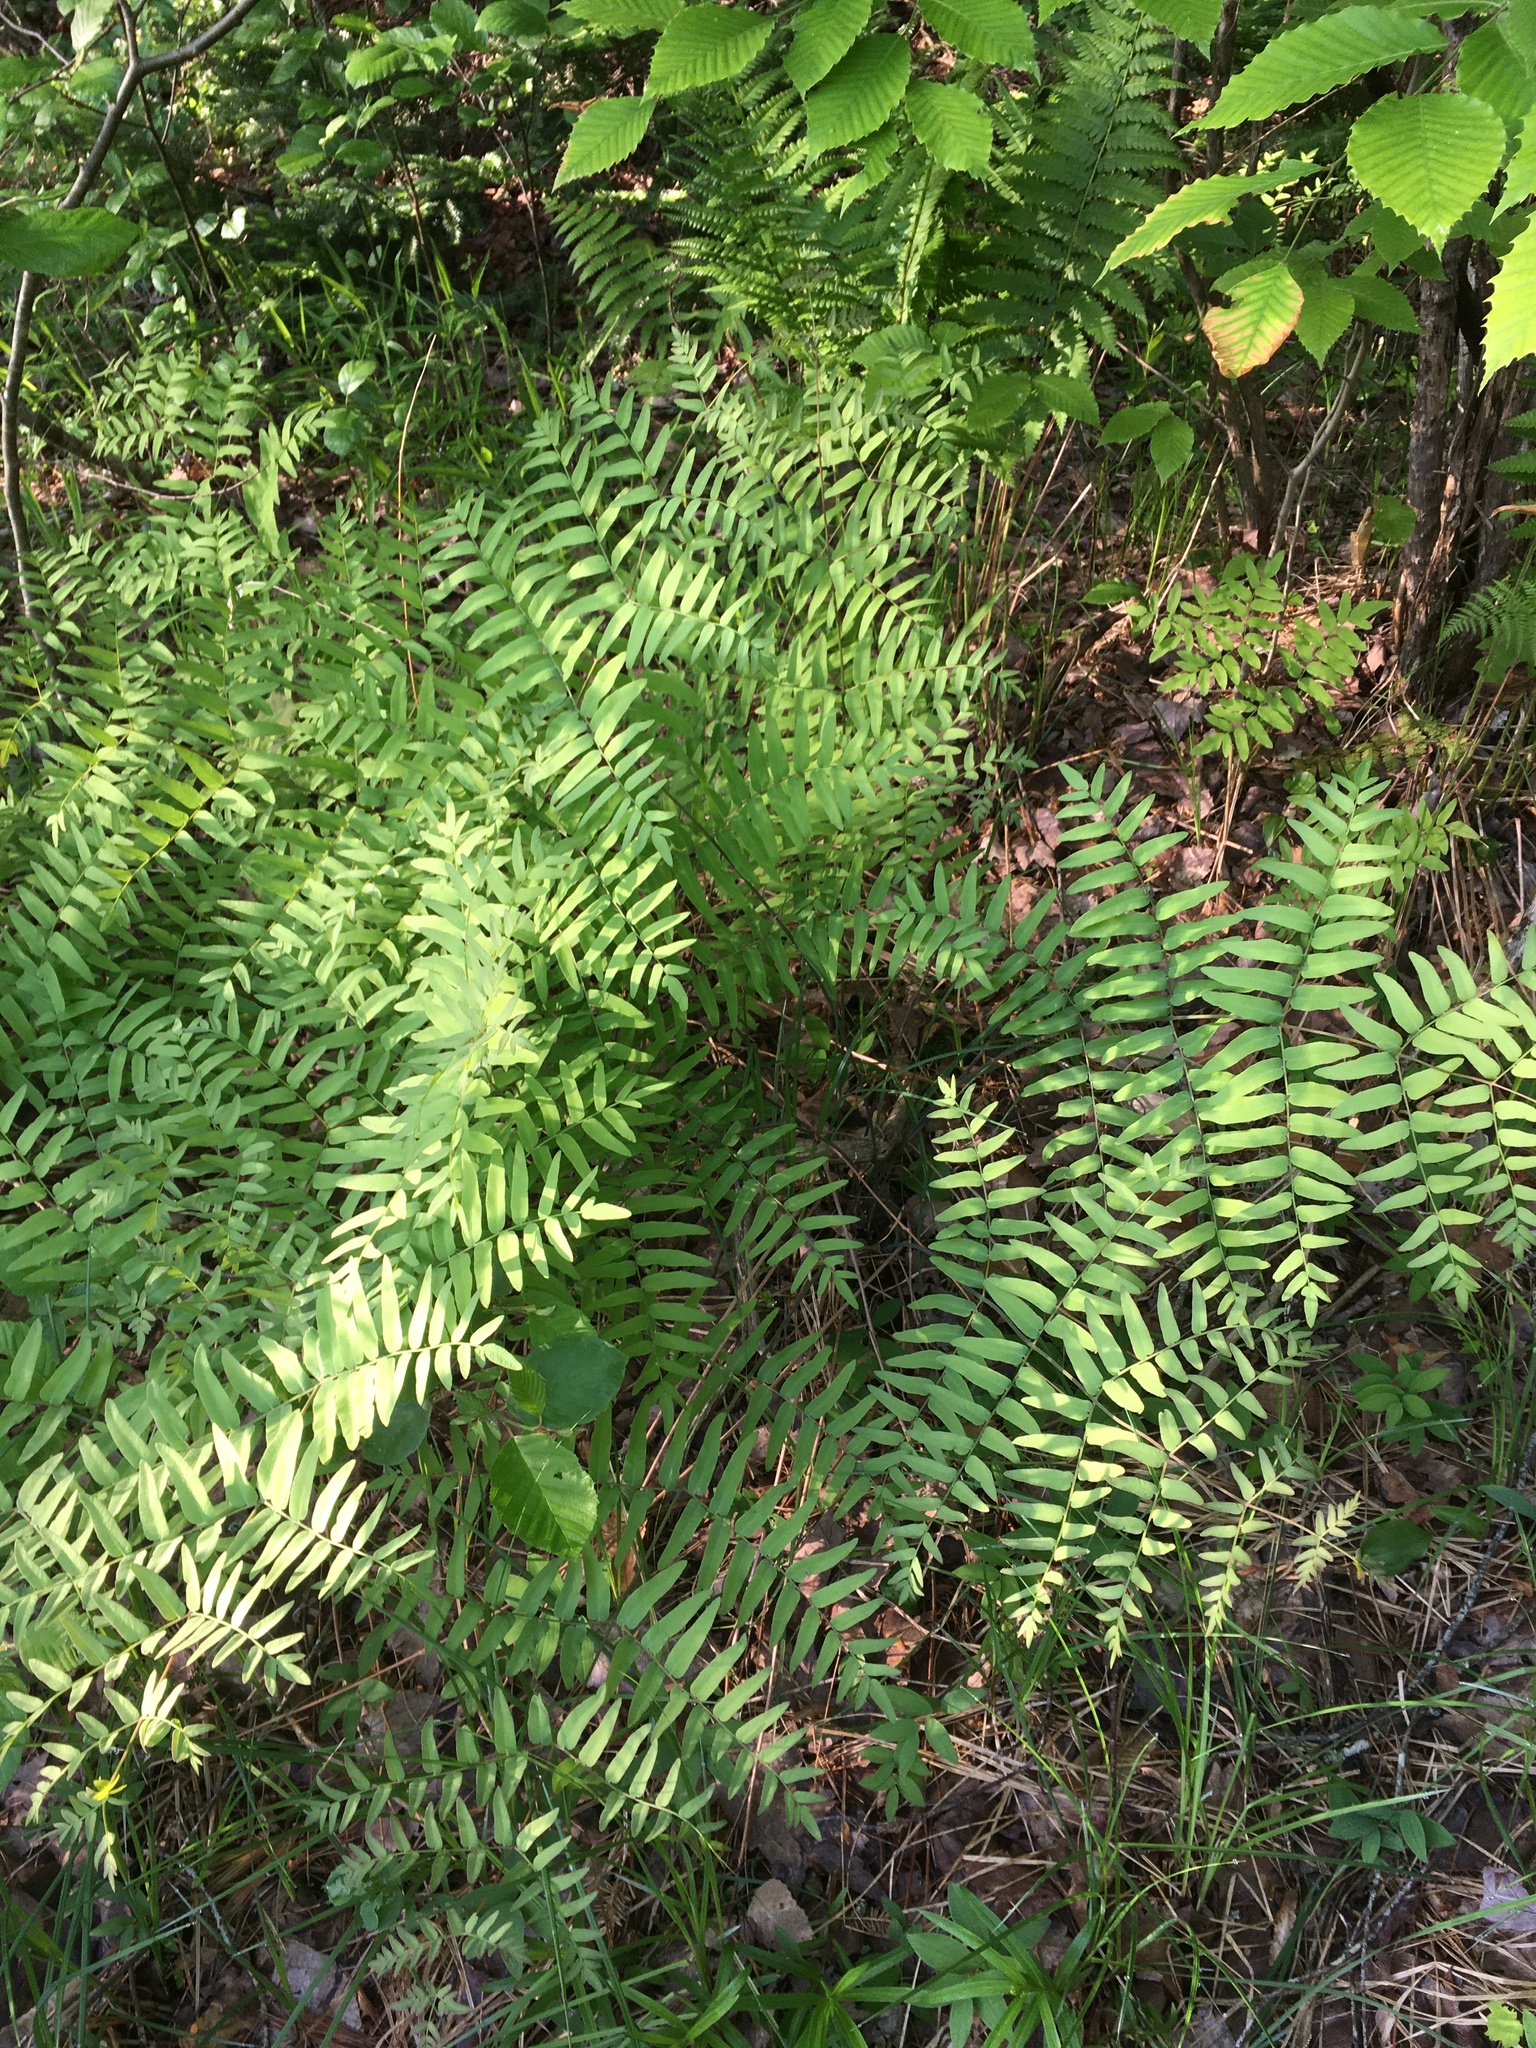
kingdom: Plantae
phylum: Tracheophyta
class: Polypodiopsida
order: Osmundales
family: Osmundaceae
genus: Osmunda
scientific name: Osmunda spectabilis
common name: American royal fern
